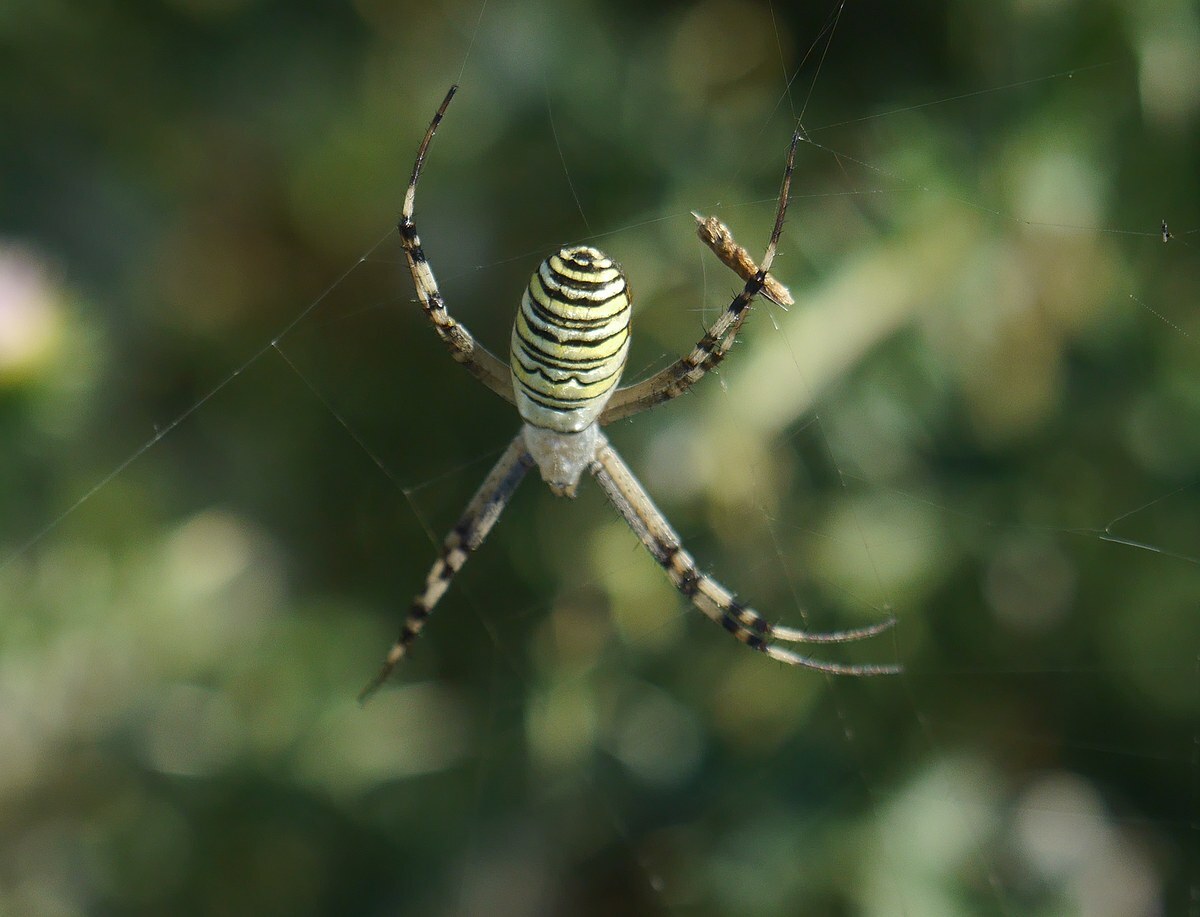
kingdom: Animalia
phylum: Arthropoda
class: Arachnida
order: Araneae
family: Araneidae
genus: Argiope
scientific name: Argiope bruennichi
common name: Wasp spider
